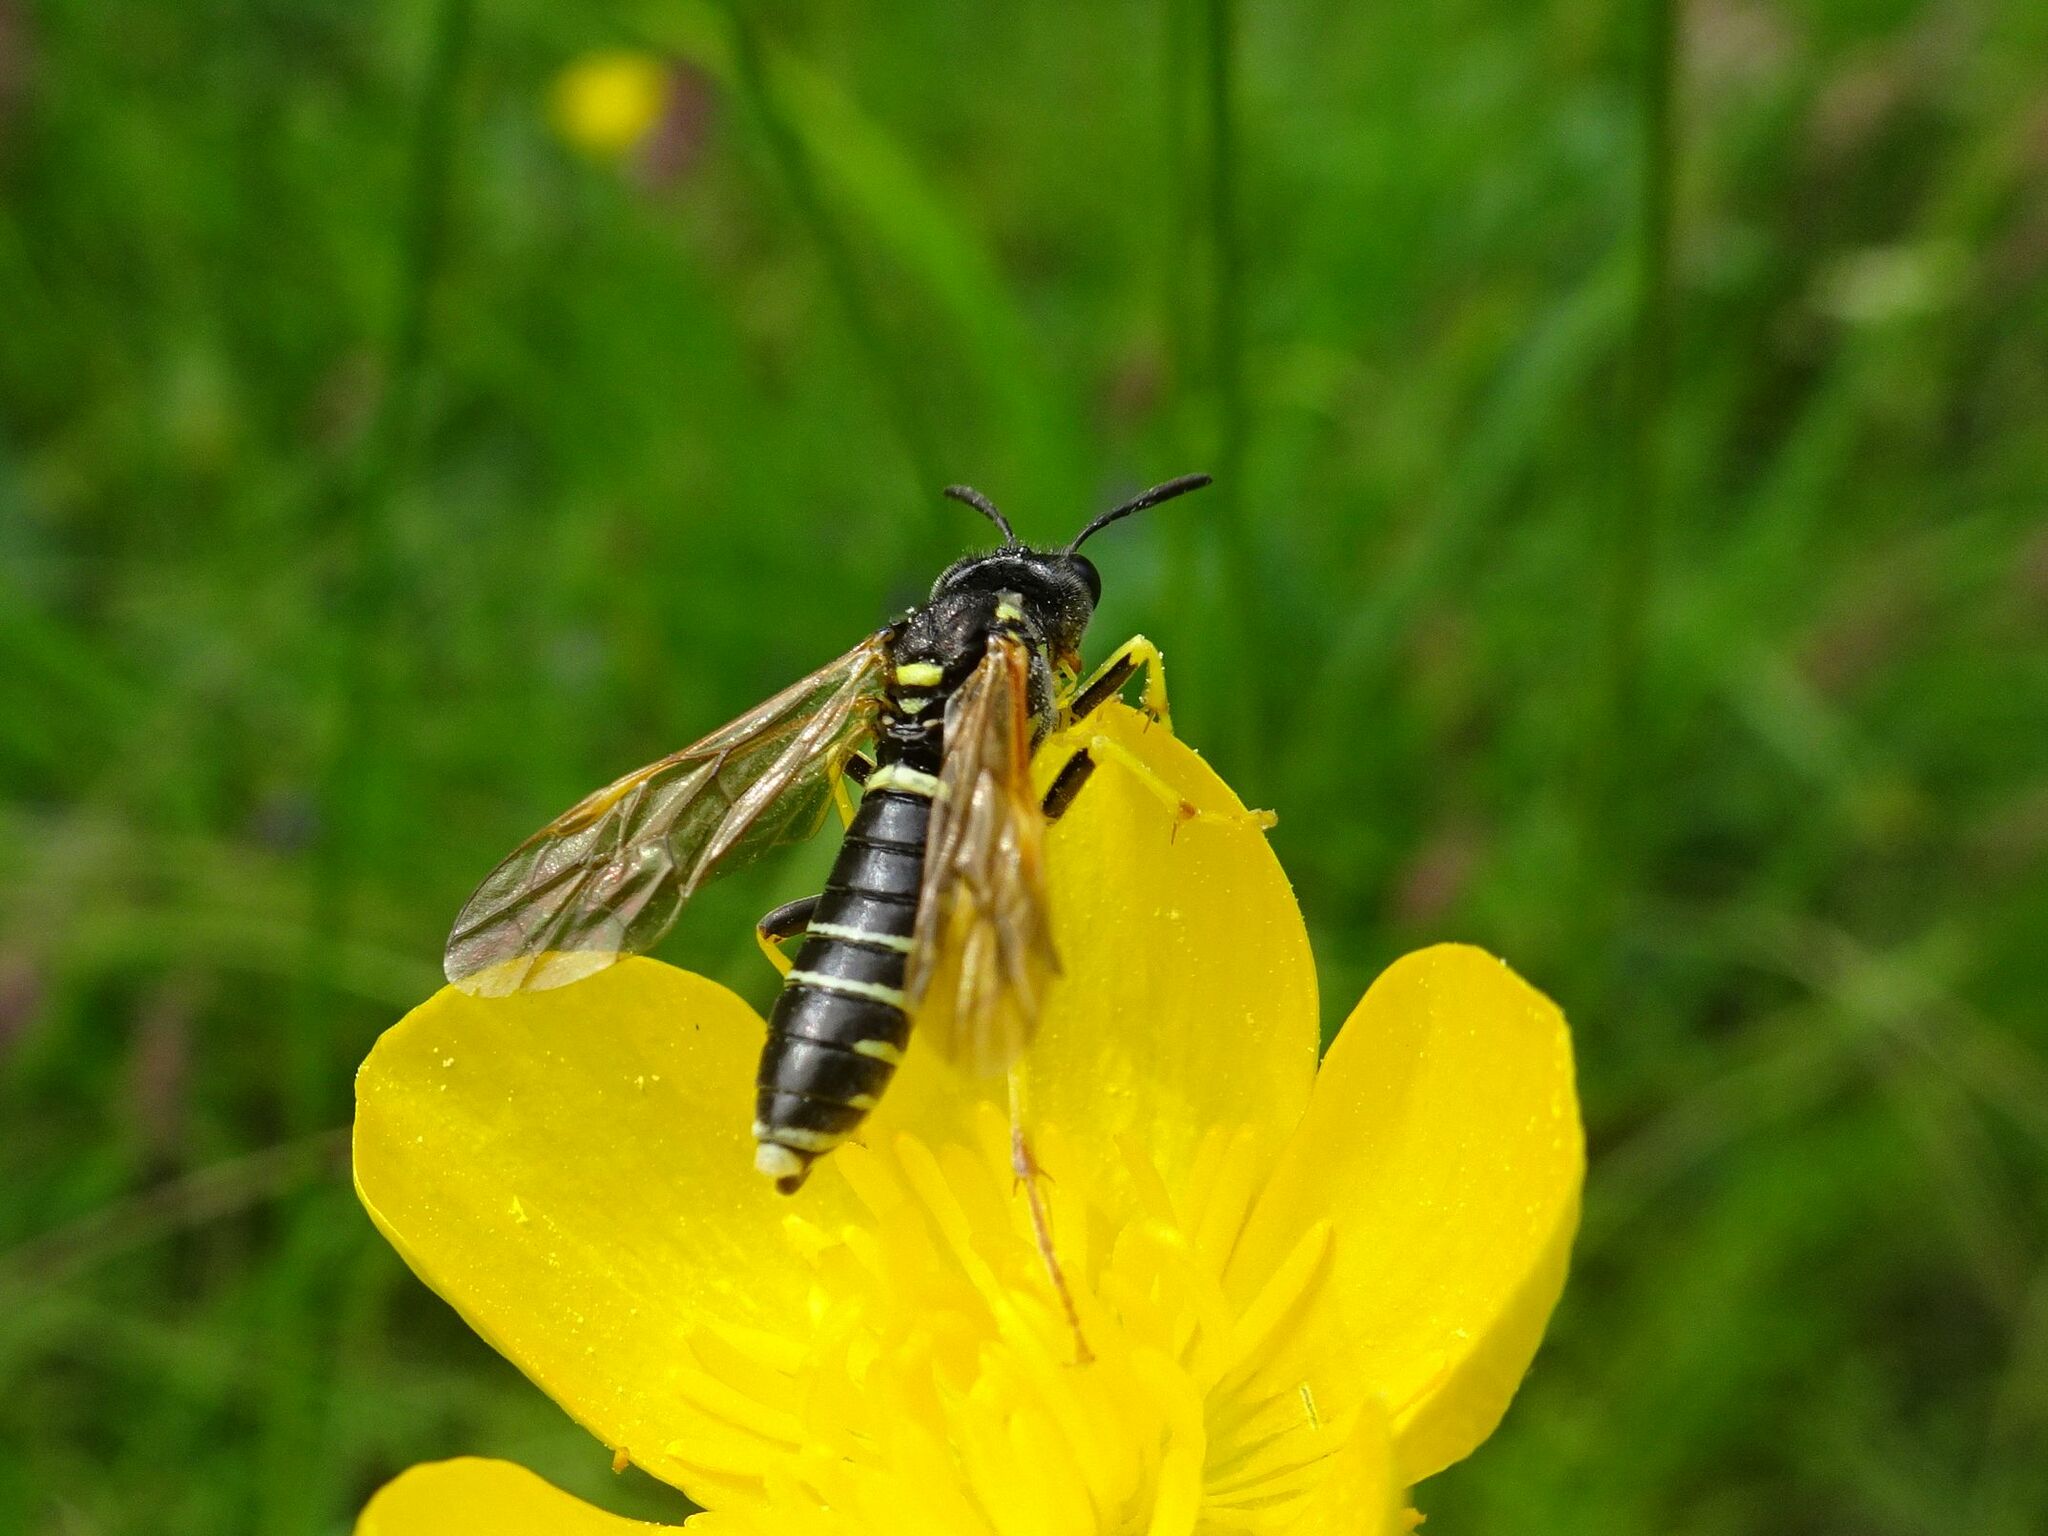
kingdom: Animalia
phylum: Arthropoda
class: Insecta
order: Hymenoptera
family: Tenthredinidae
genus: Tenthredo
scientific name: Tenthredo schaefferi
